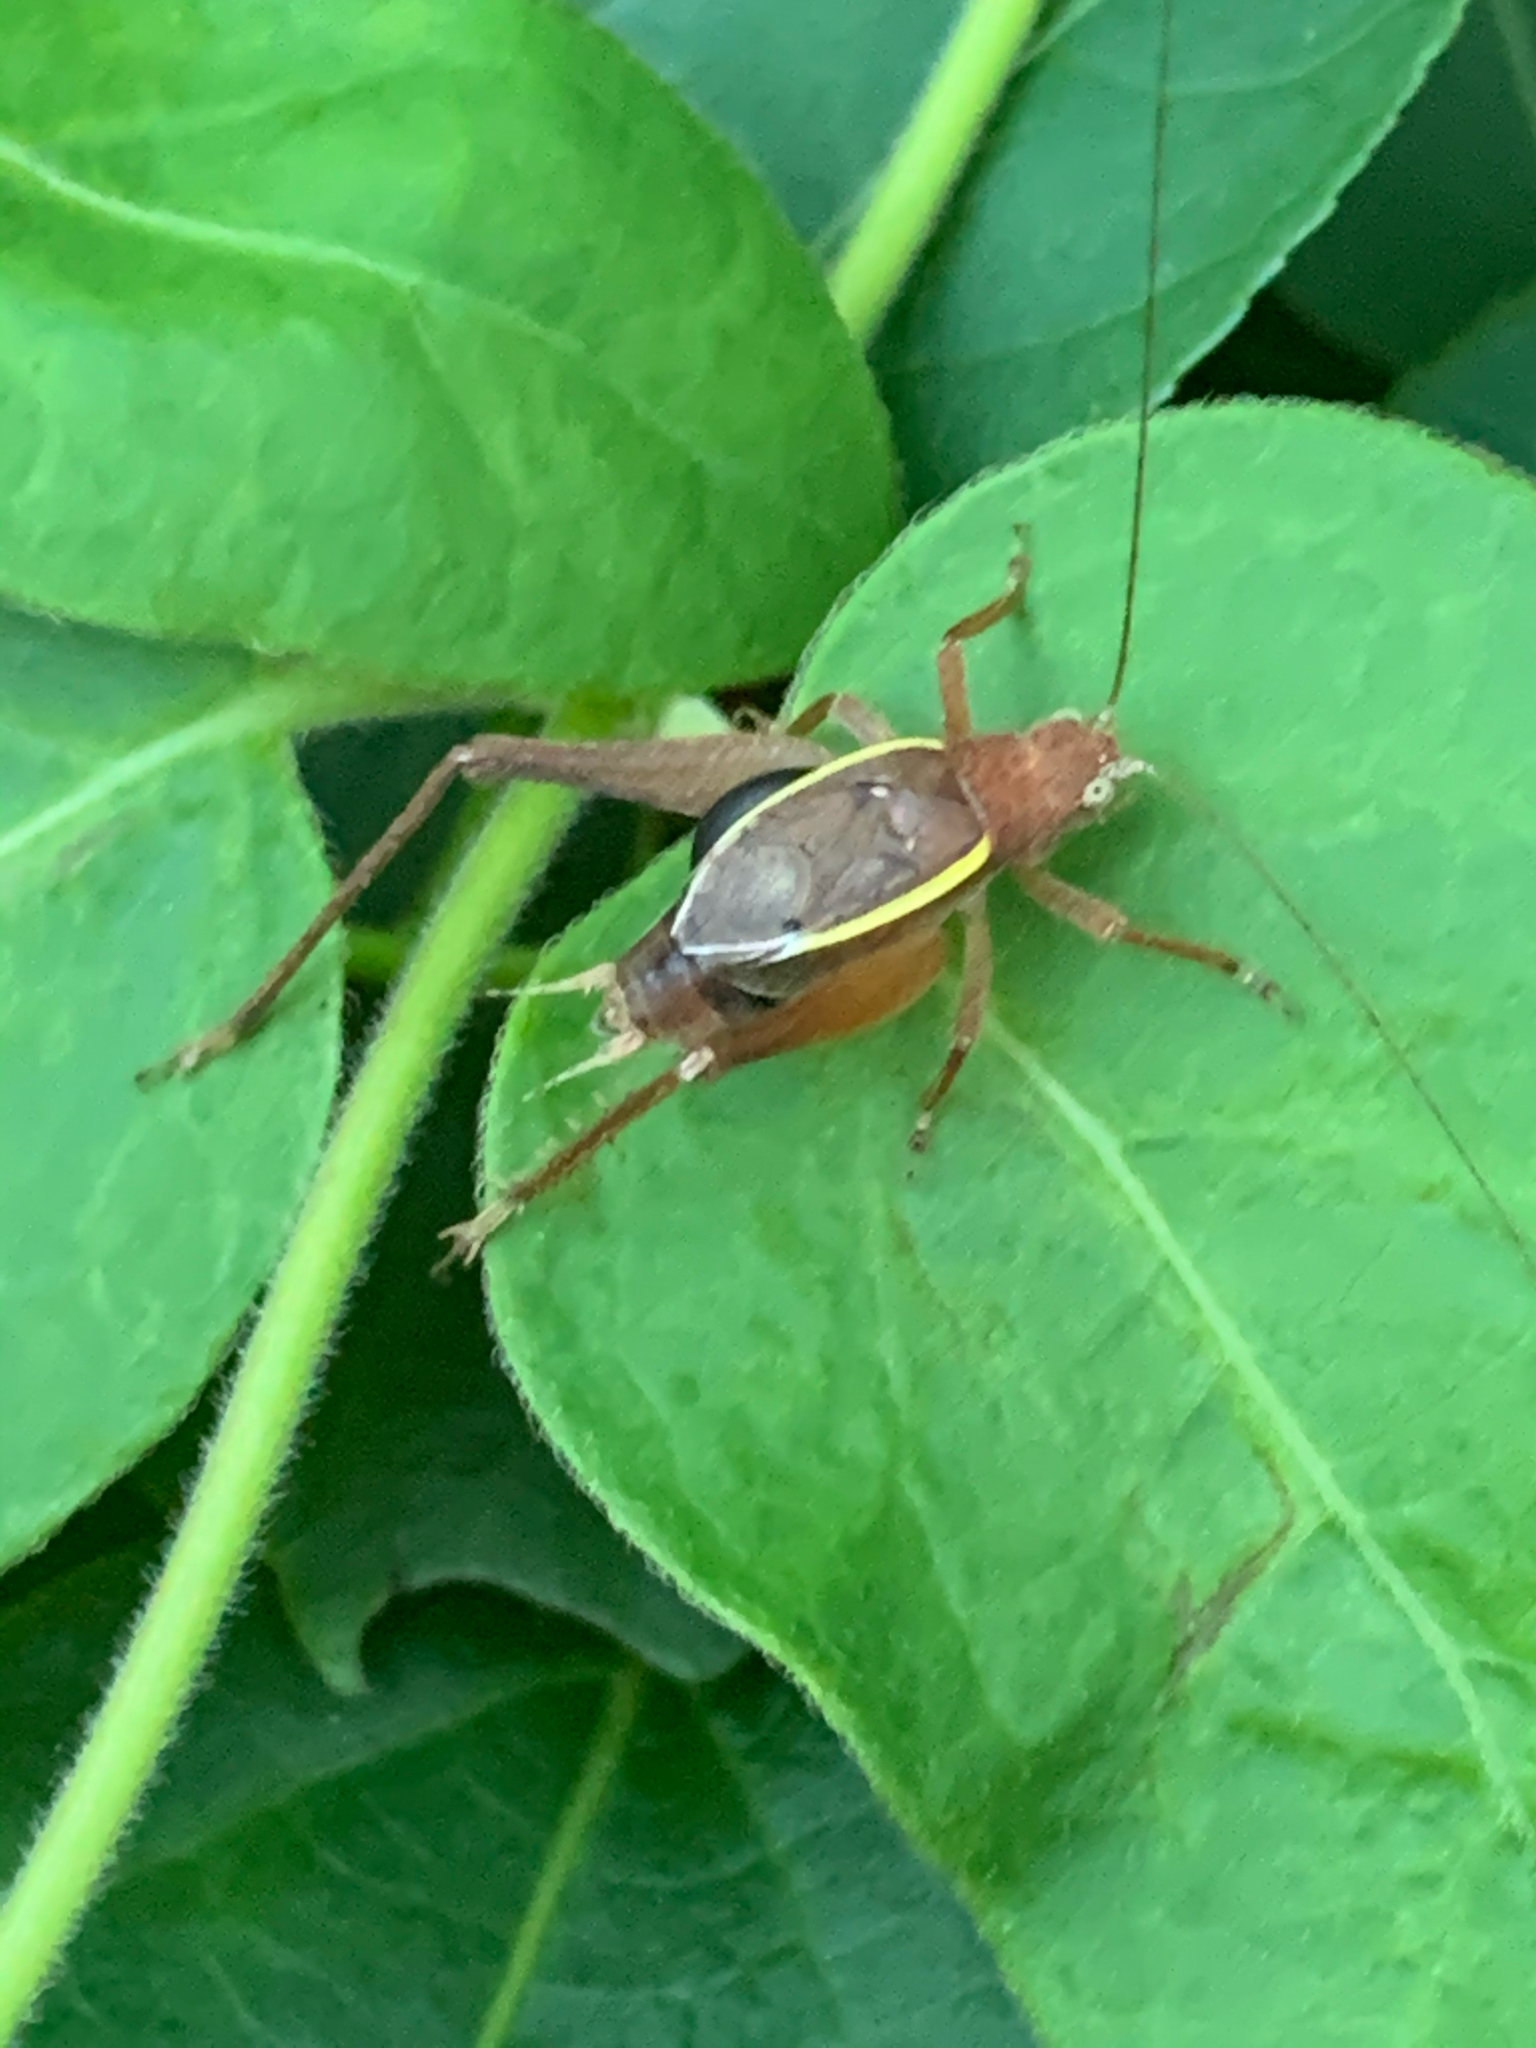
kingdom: Animalia
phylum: Arthropoda
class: Insecta
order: Orthoptera
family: Gryllidae
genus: Hapithus
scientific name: Hapithus agitator
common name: Restless bush cricket
